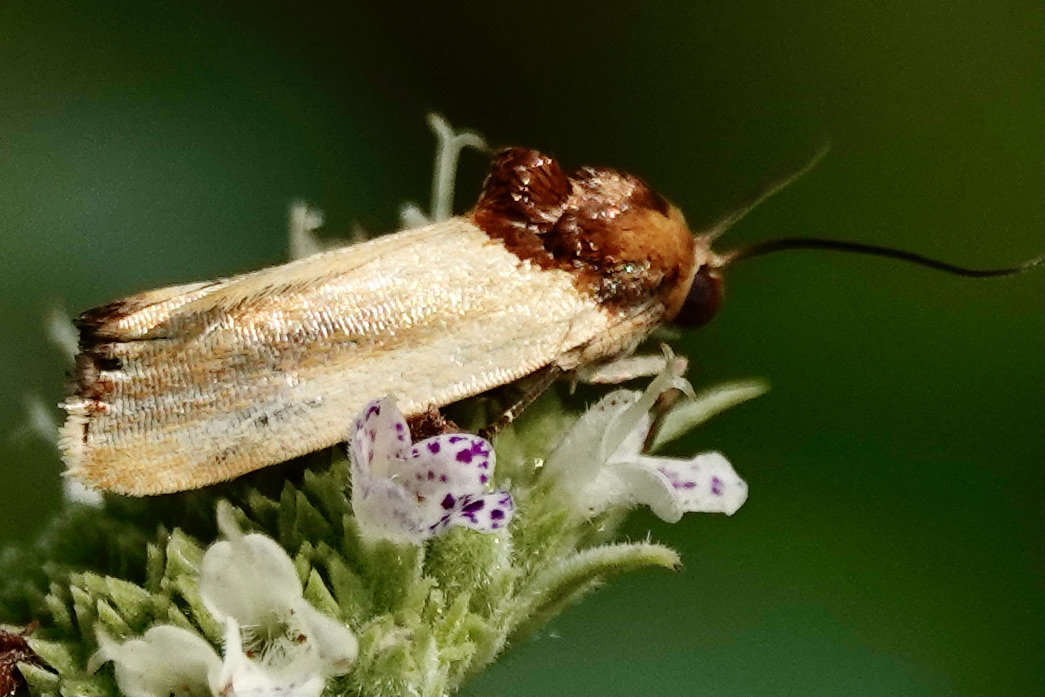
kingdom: Animalia
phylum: Arthropoda
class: Insecta
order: Lepidoptera
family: Noctuidae
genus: Spragueia
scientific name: Spragueia apicalis
